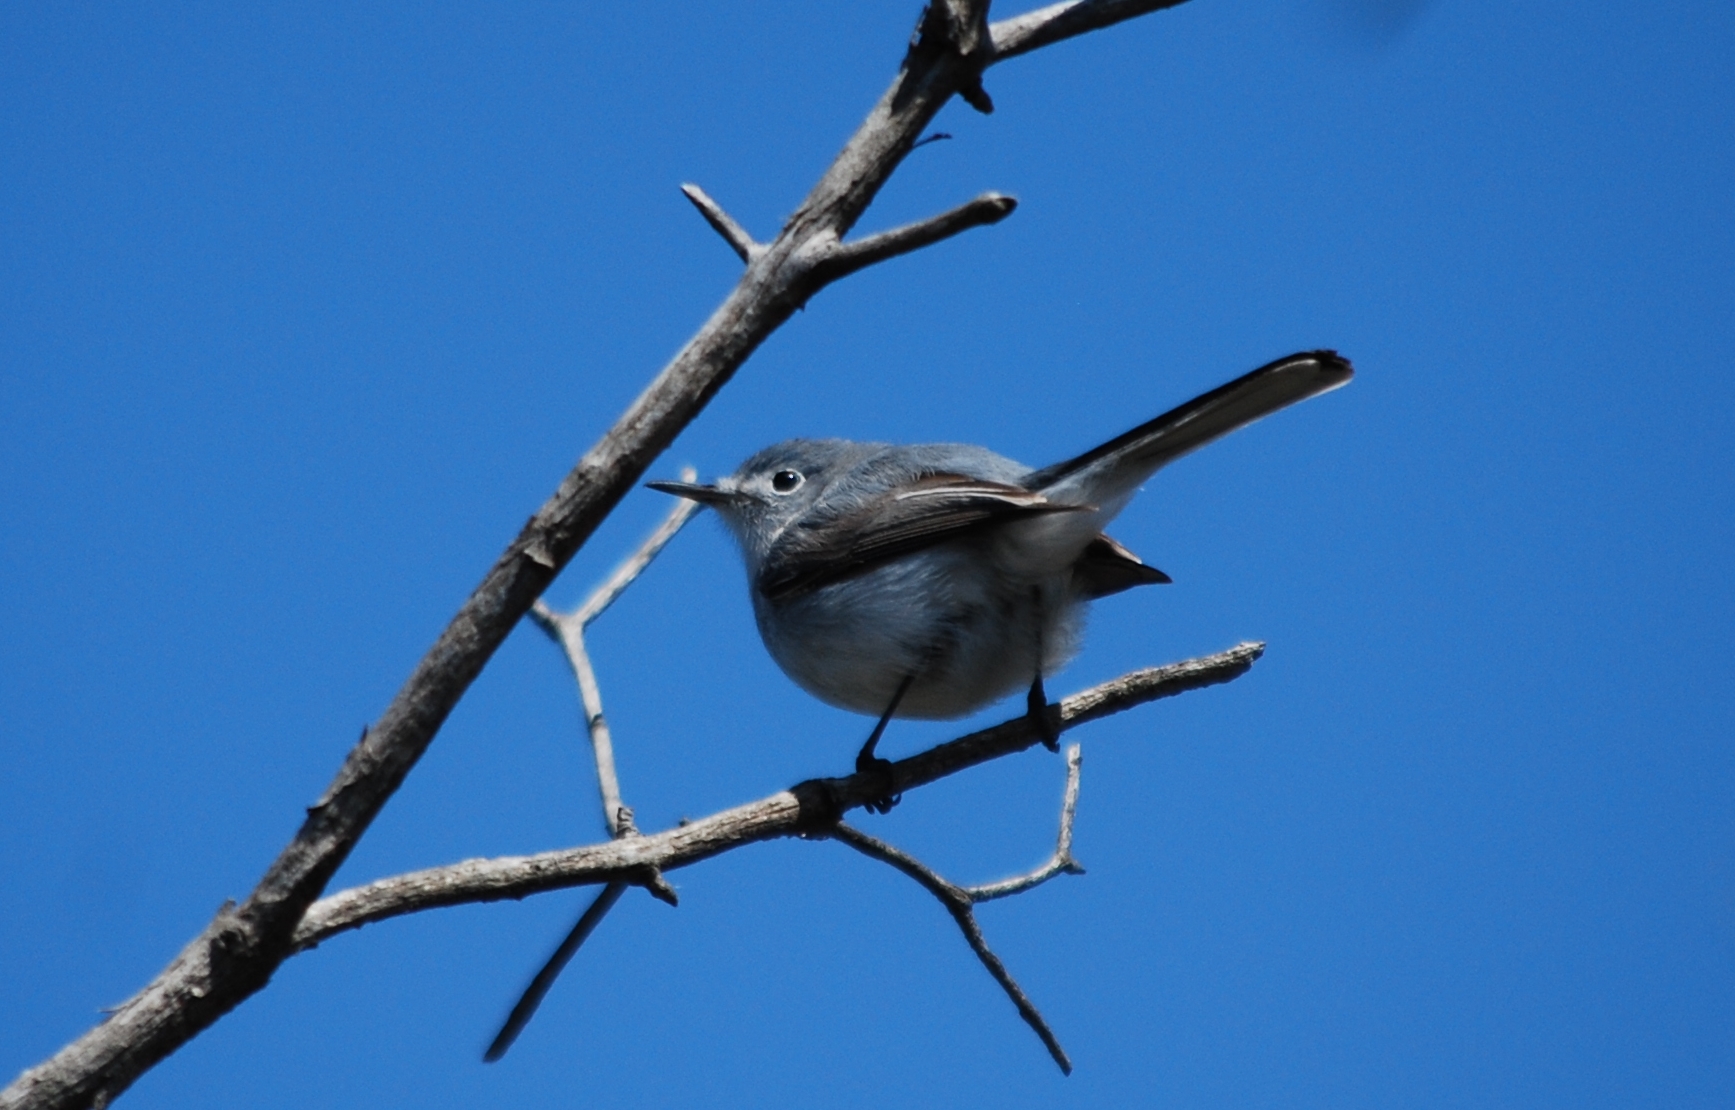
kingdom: Animalia
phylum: Chordata
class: Aves
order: Passeriformes
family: Polioptilidae
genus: Polioptila
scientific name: Polioptila caerulea
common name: Blue-gray gnatcatcher
